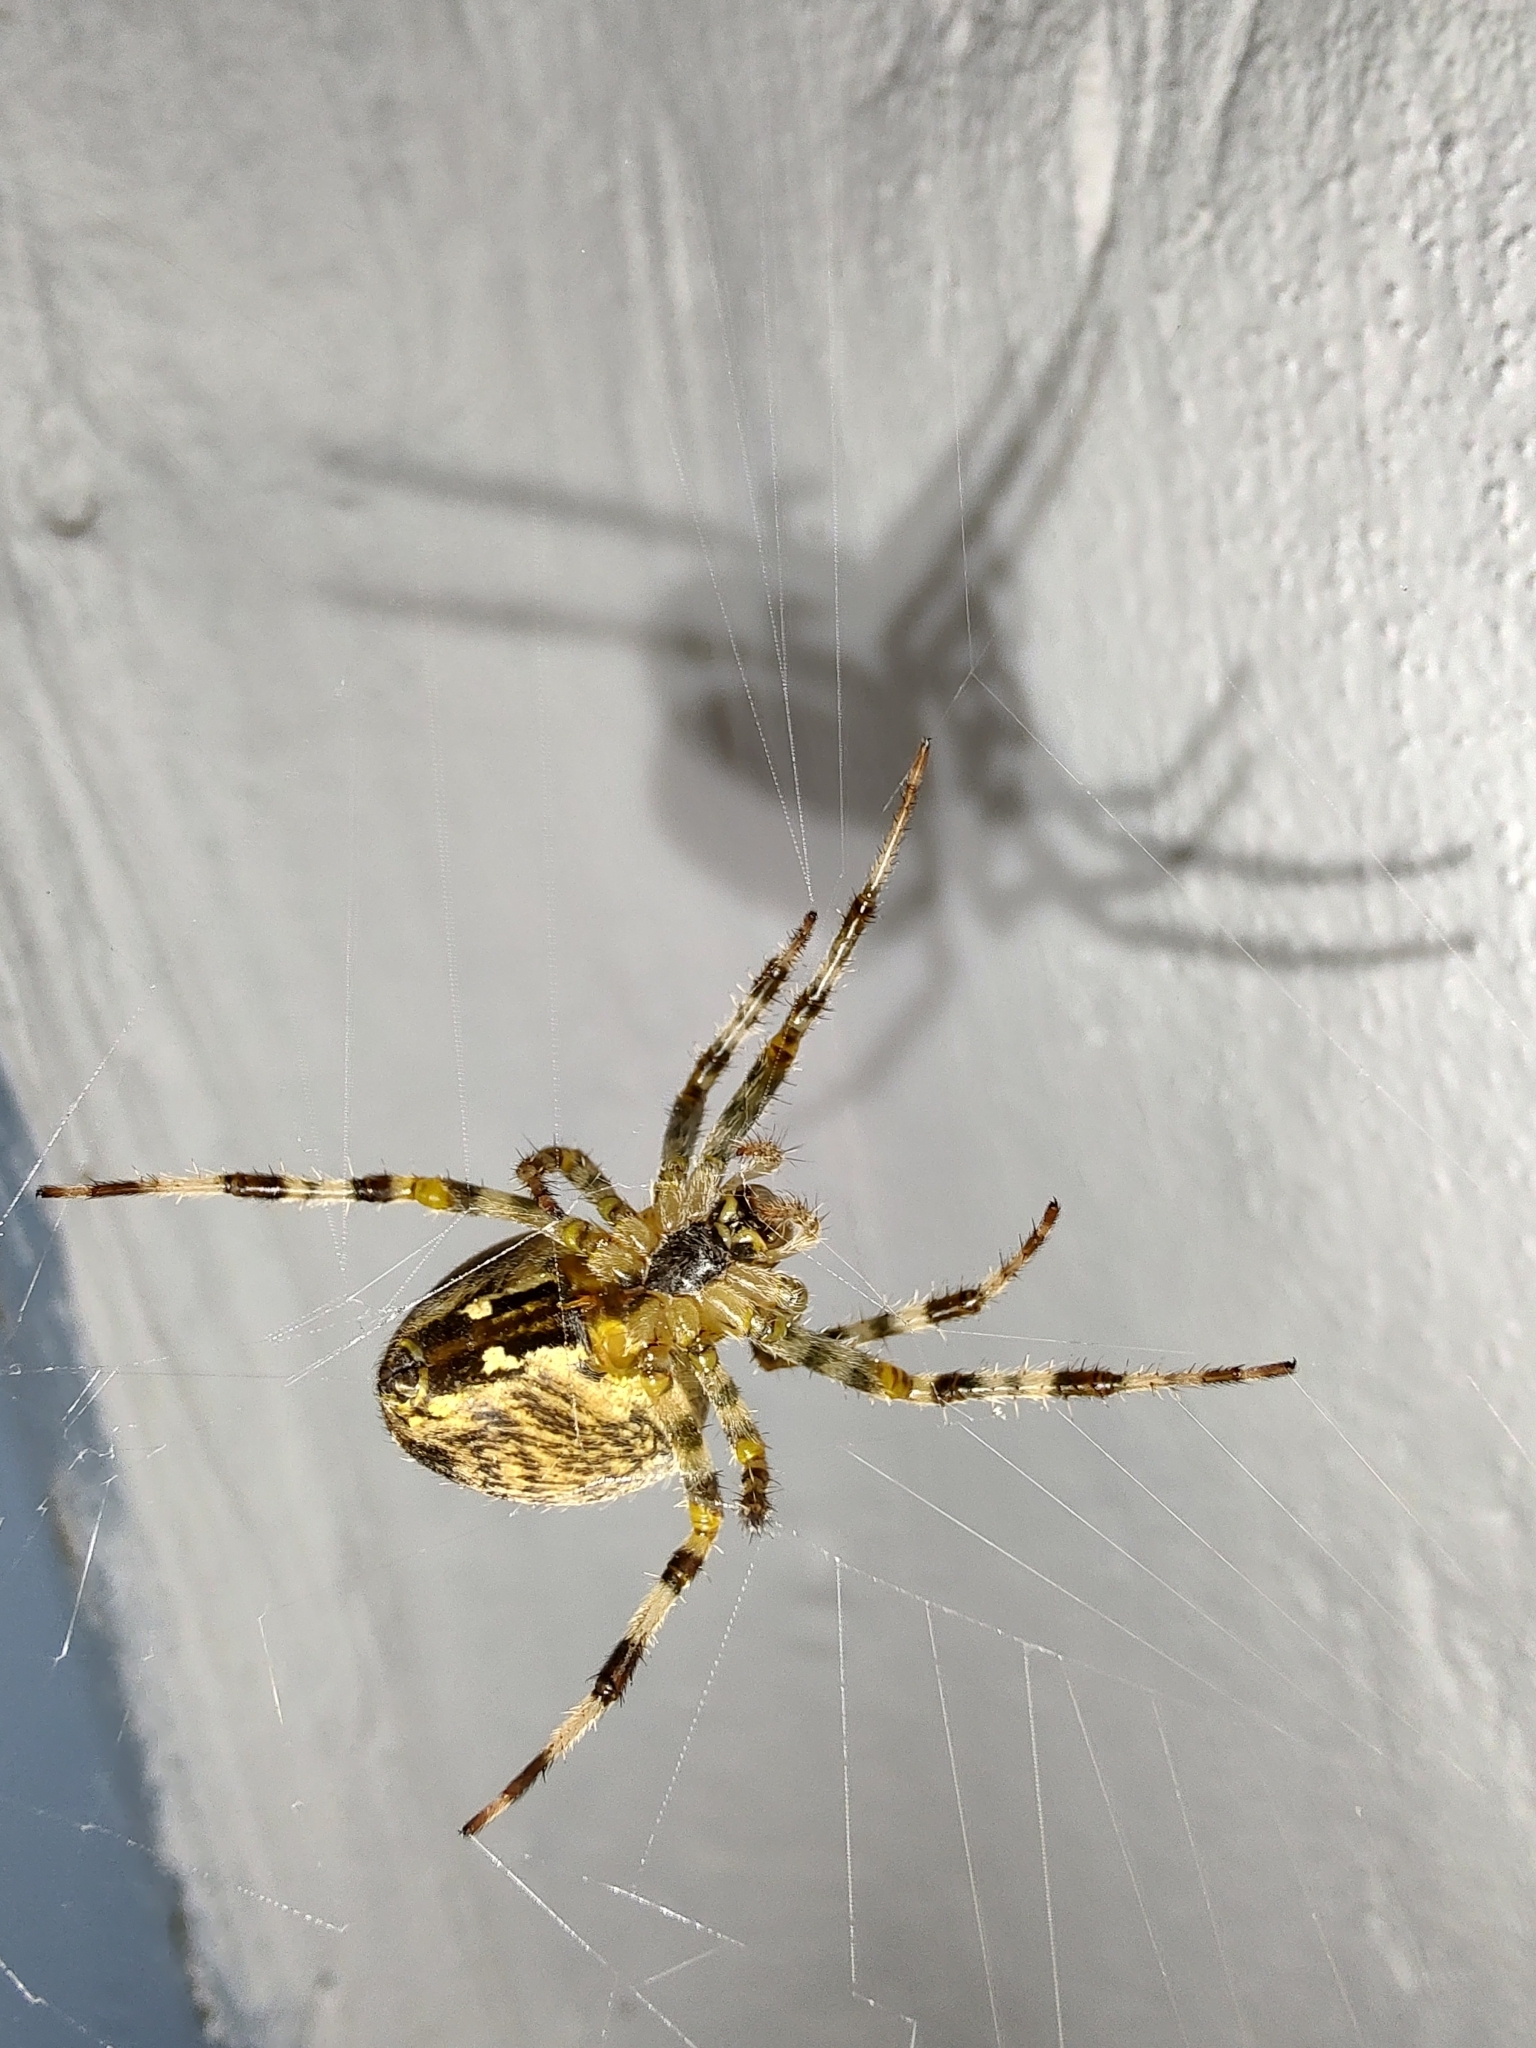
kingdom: Animalia
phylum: Arthropoda
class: Arachnida
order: Araneae
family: Araneidae
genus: Araneus
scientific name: Araneus diadematus
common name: Cross orbweaver
